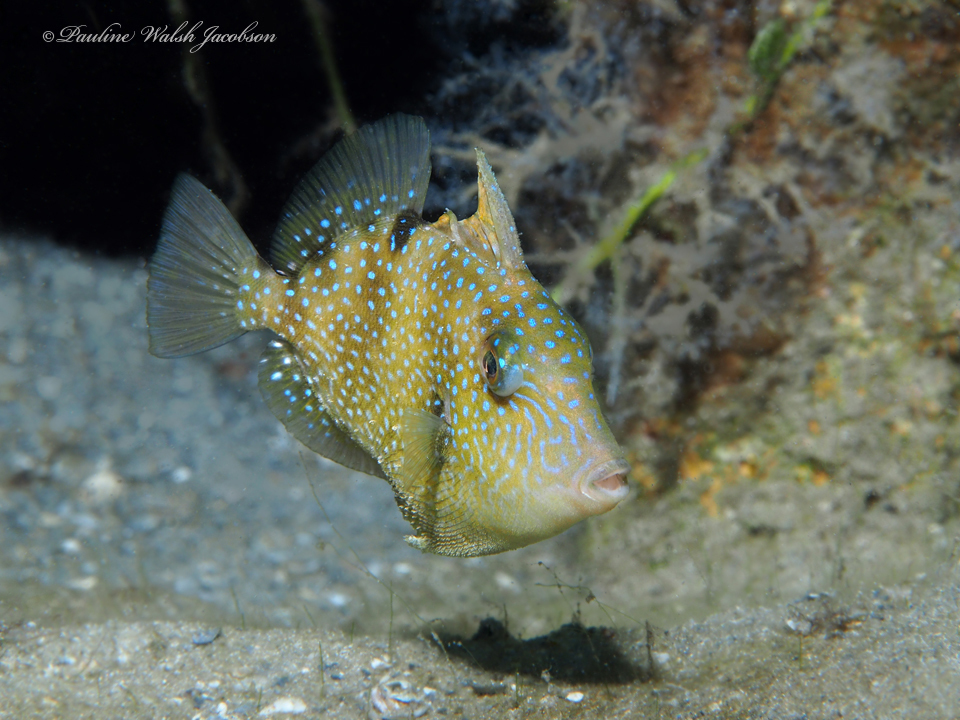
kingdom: Animalia
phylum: Chordata
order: Tetraodontiformes
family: Balistidae
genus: Balistes
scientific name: Balistes capriscus
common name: Grey triggerfish
